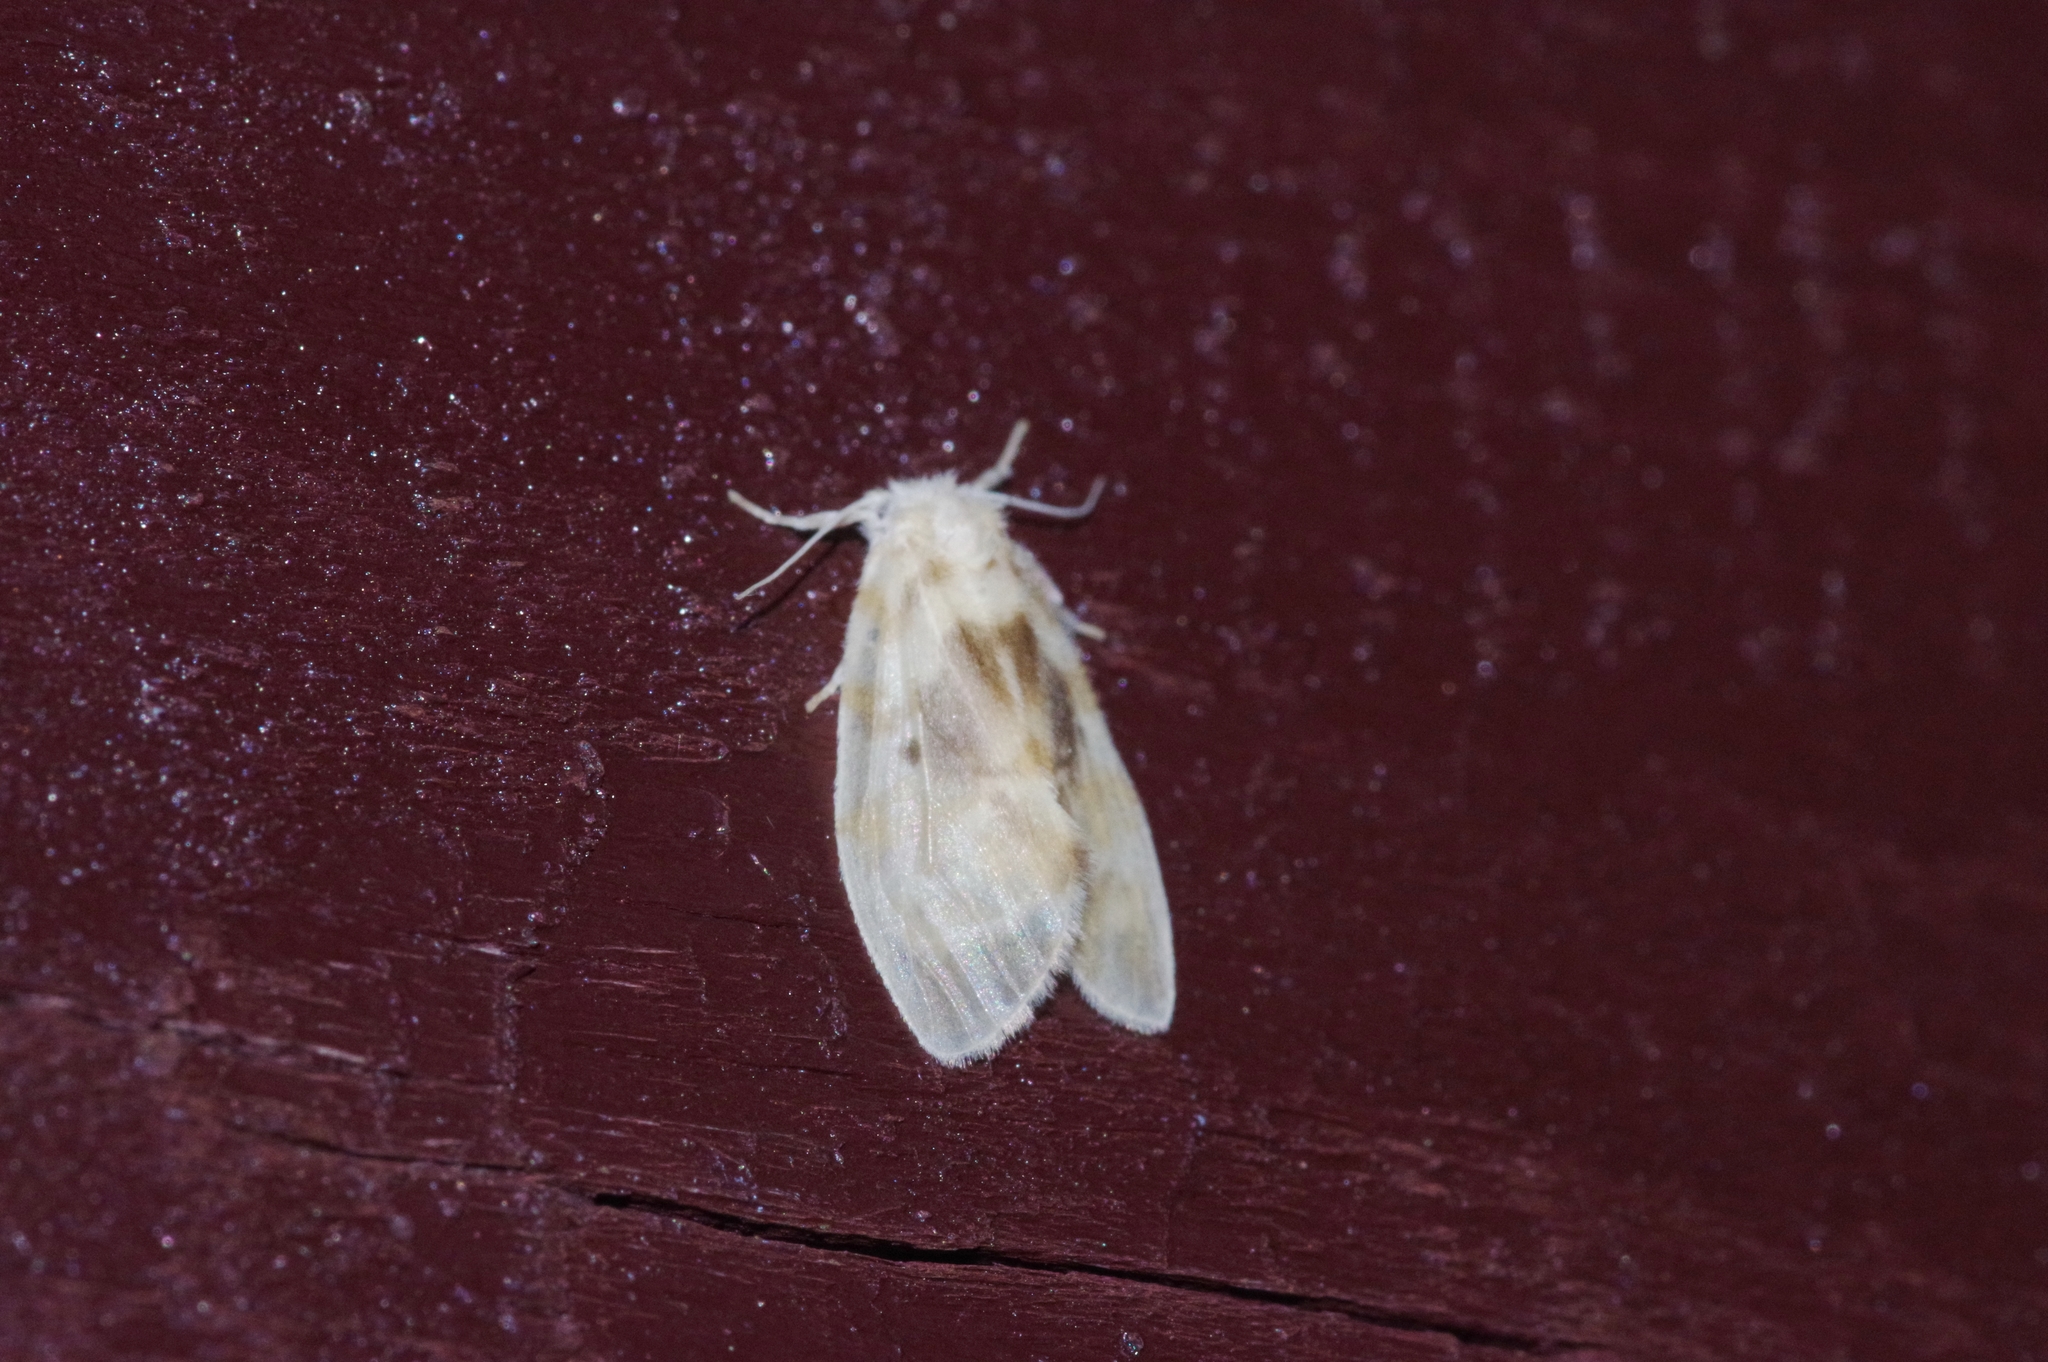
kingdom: Animalia
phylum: Arthropoda
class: Insecta
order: Lepidoptera
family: Erebidae
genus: Nudaria
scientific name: Nudaria ranruna
